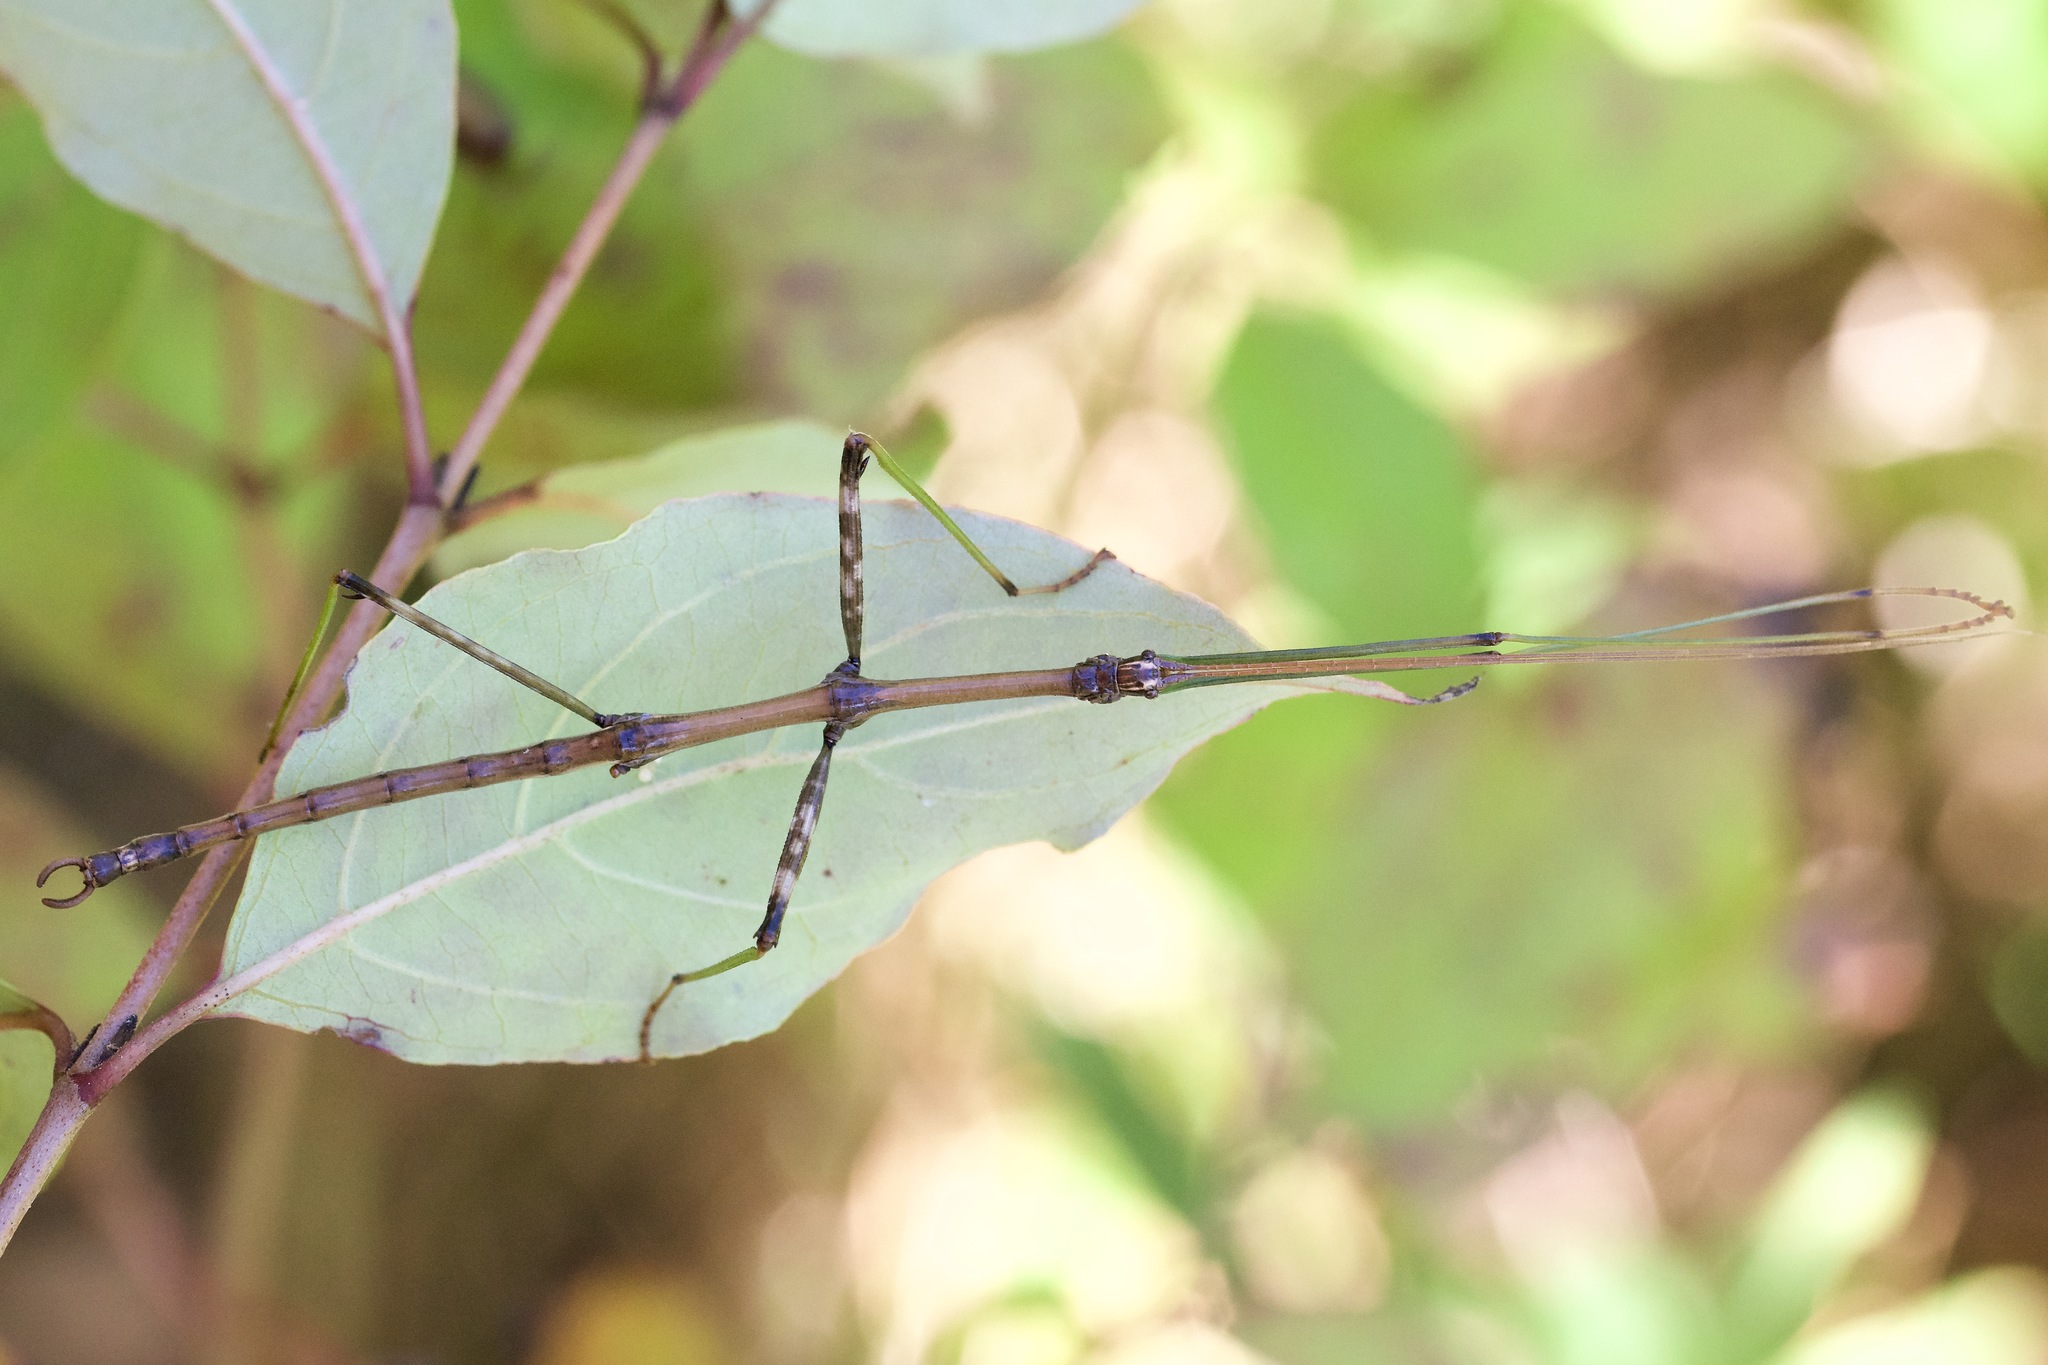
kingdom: Animalia
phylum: Arthropoda
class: Insecta
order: Phasmida
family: Diapheromeridae
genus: Diapheromera
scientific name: Diapheromera femorata
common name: Common american walkingstick
